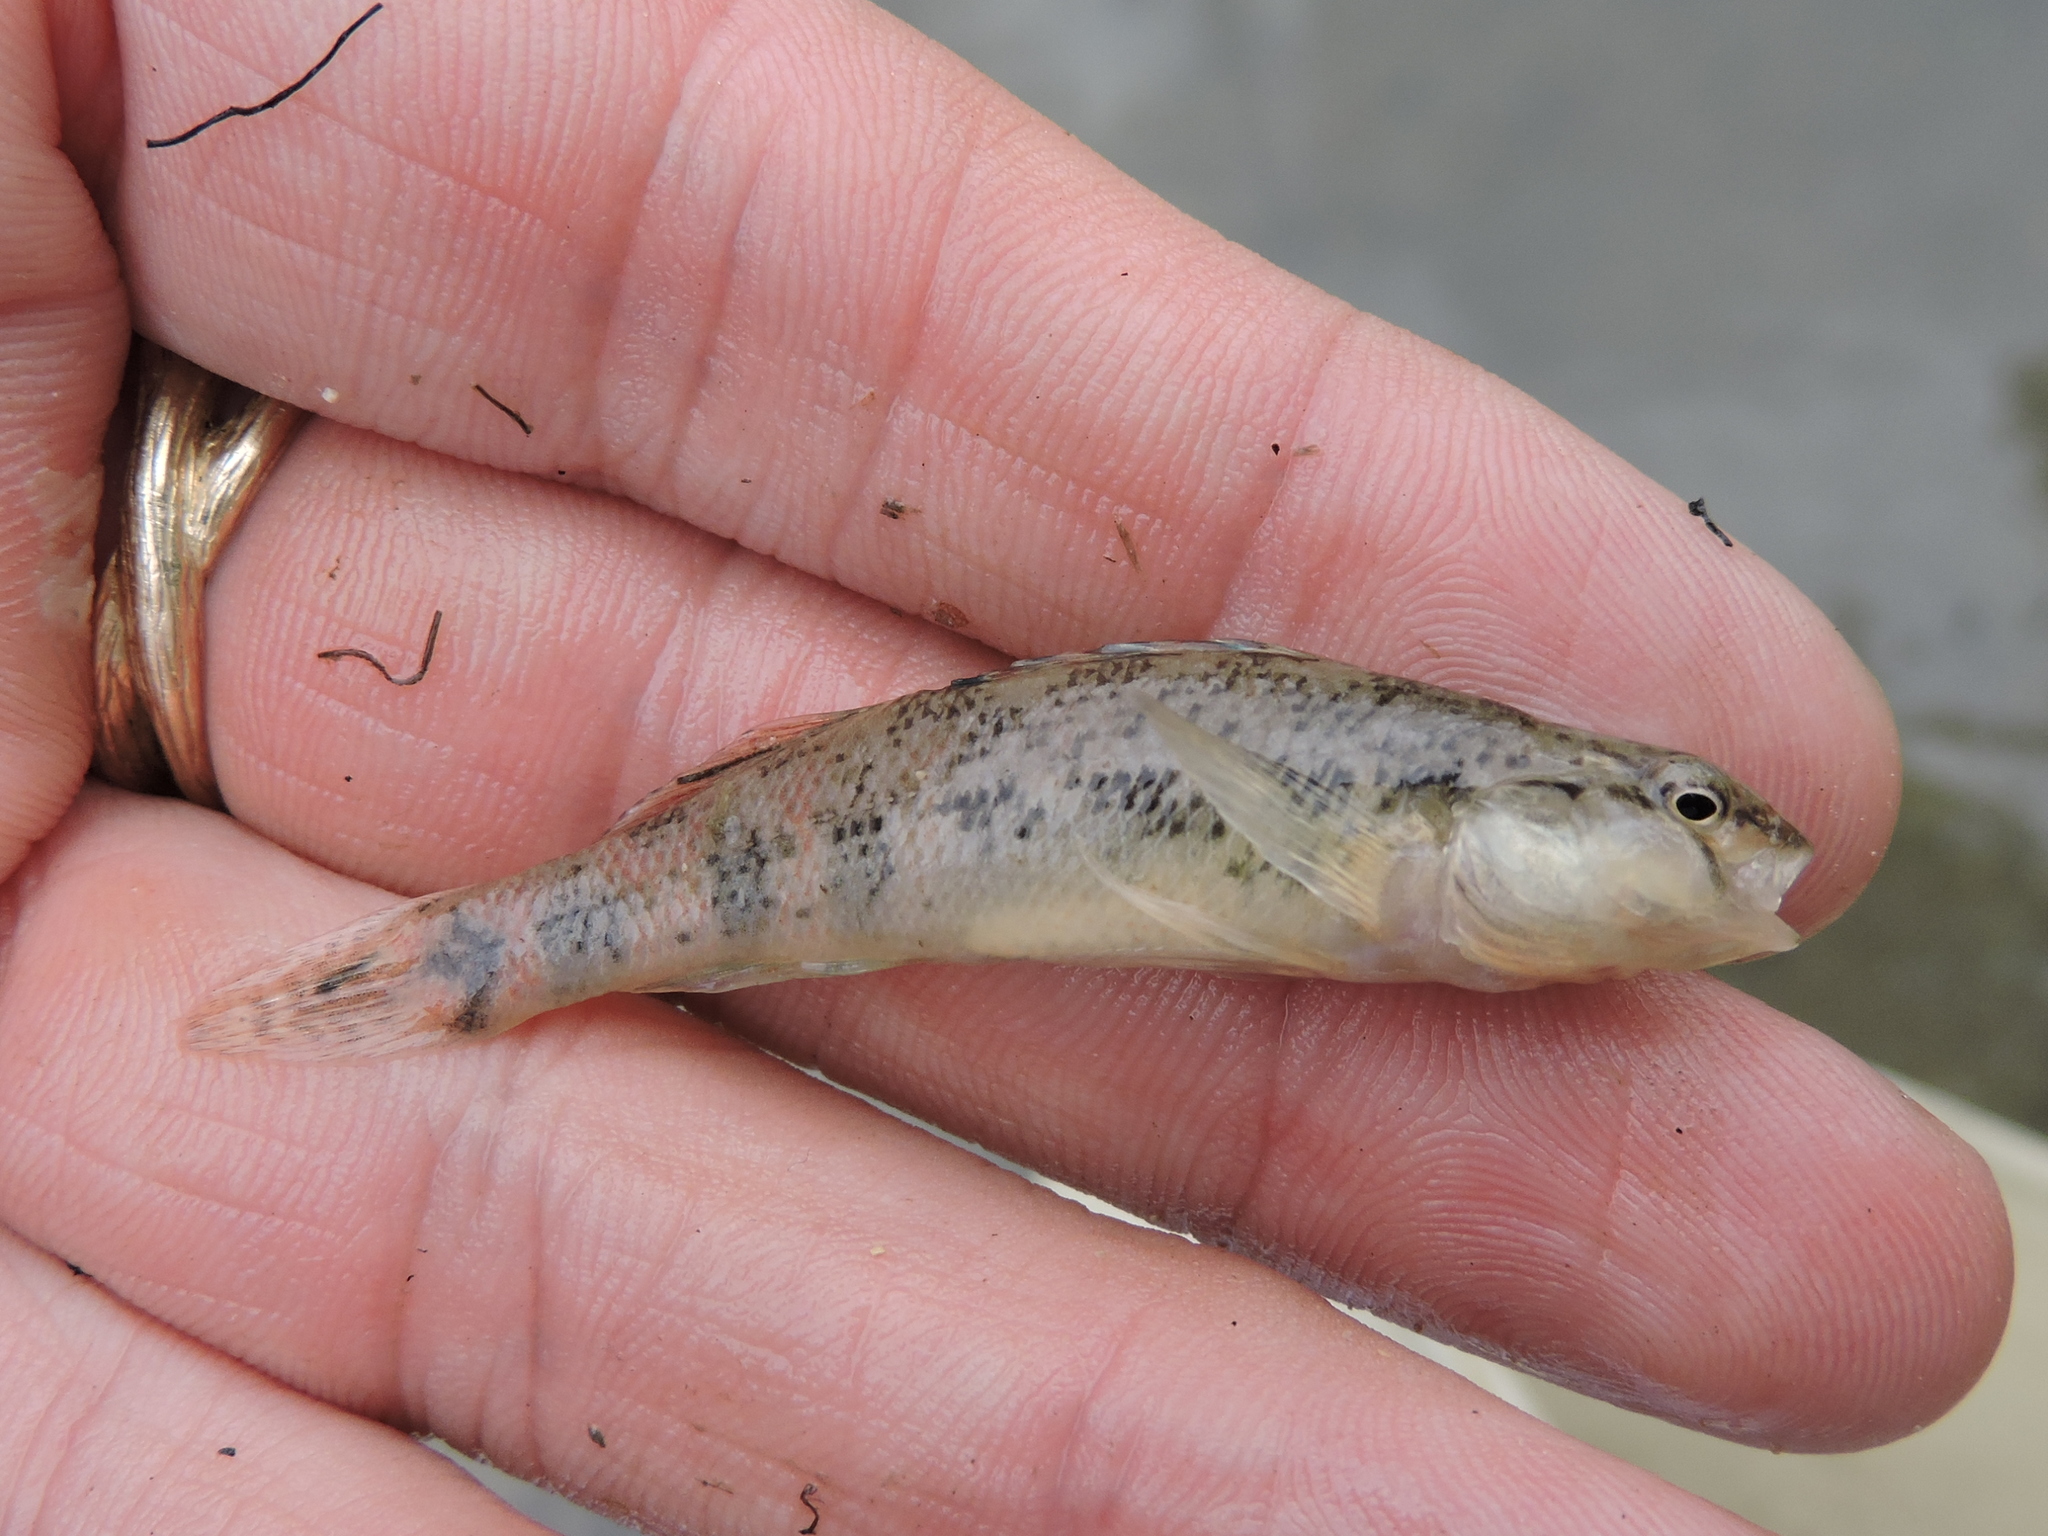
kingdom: Animalia
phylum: Chordata
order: Perciformes
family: Percidae
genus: Etheostoma
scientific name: Etheostoma pulchellum
